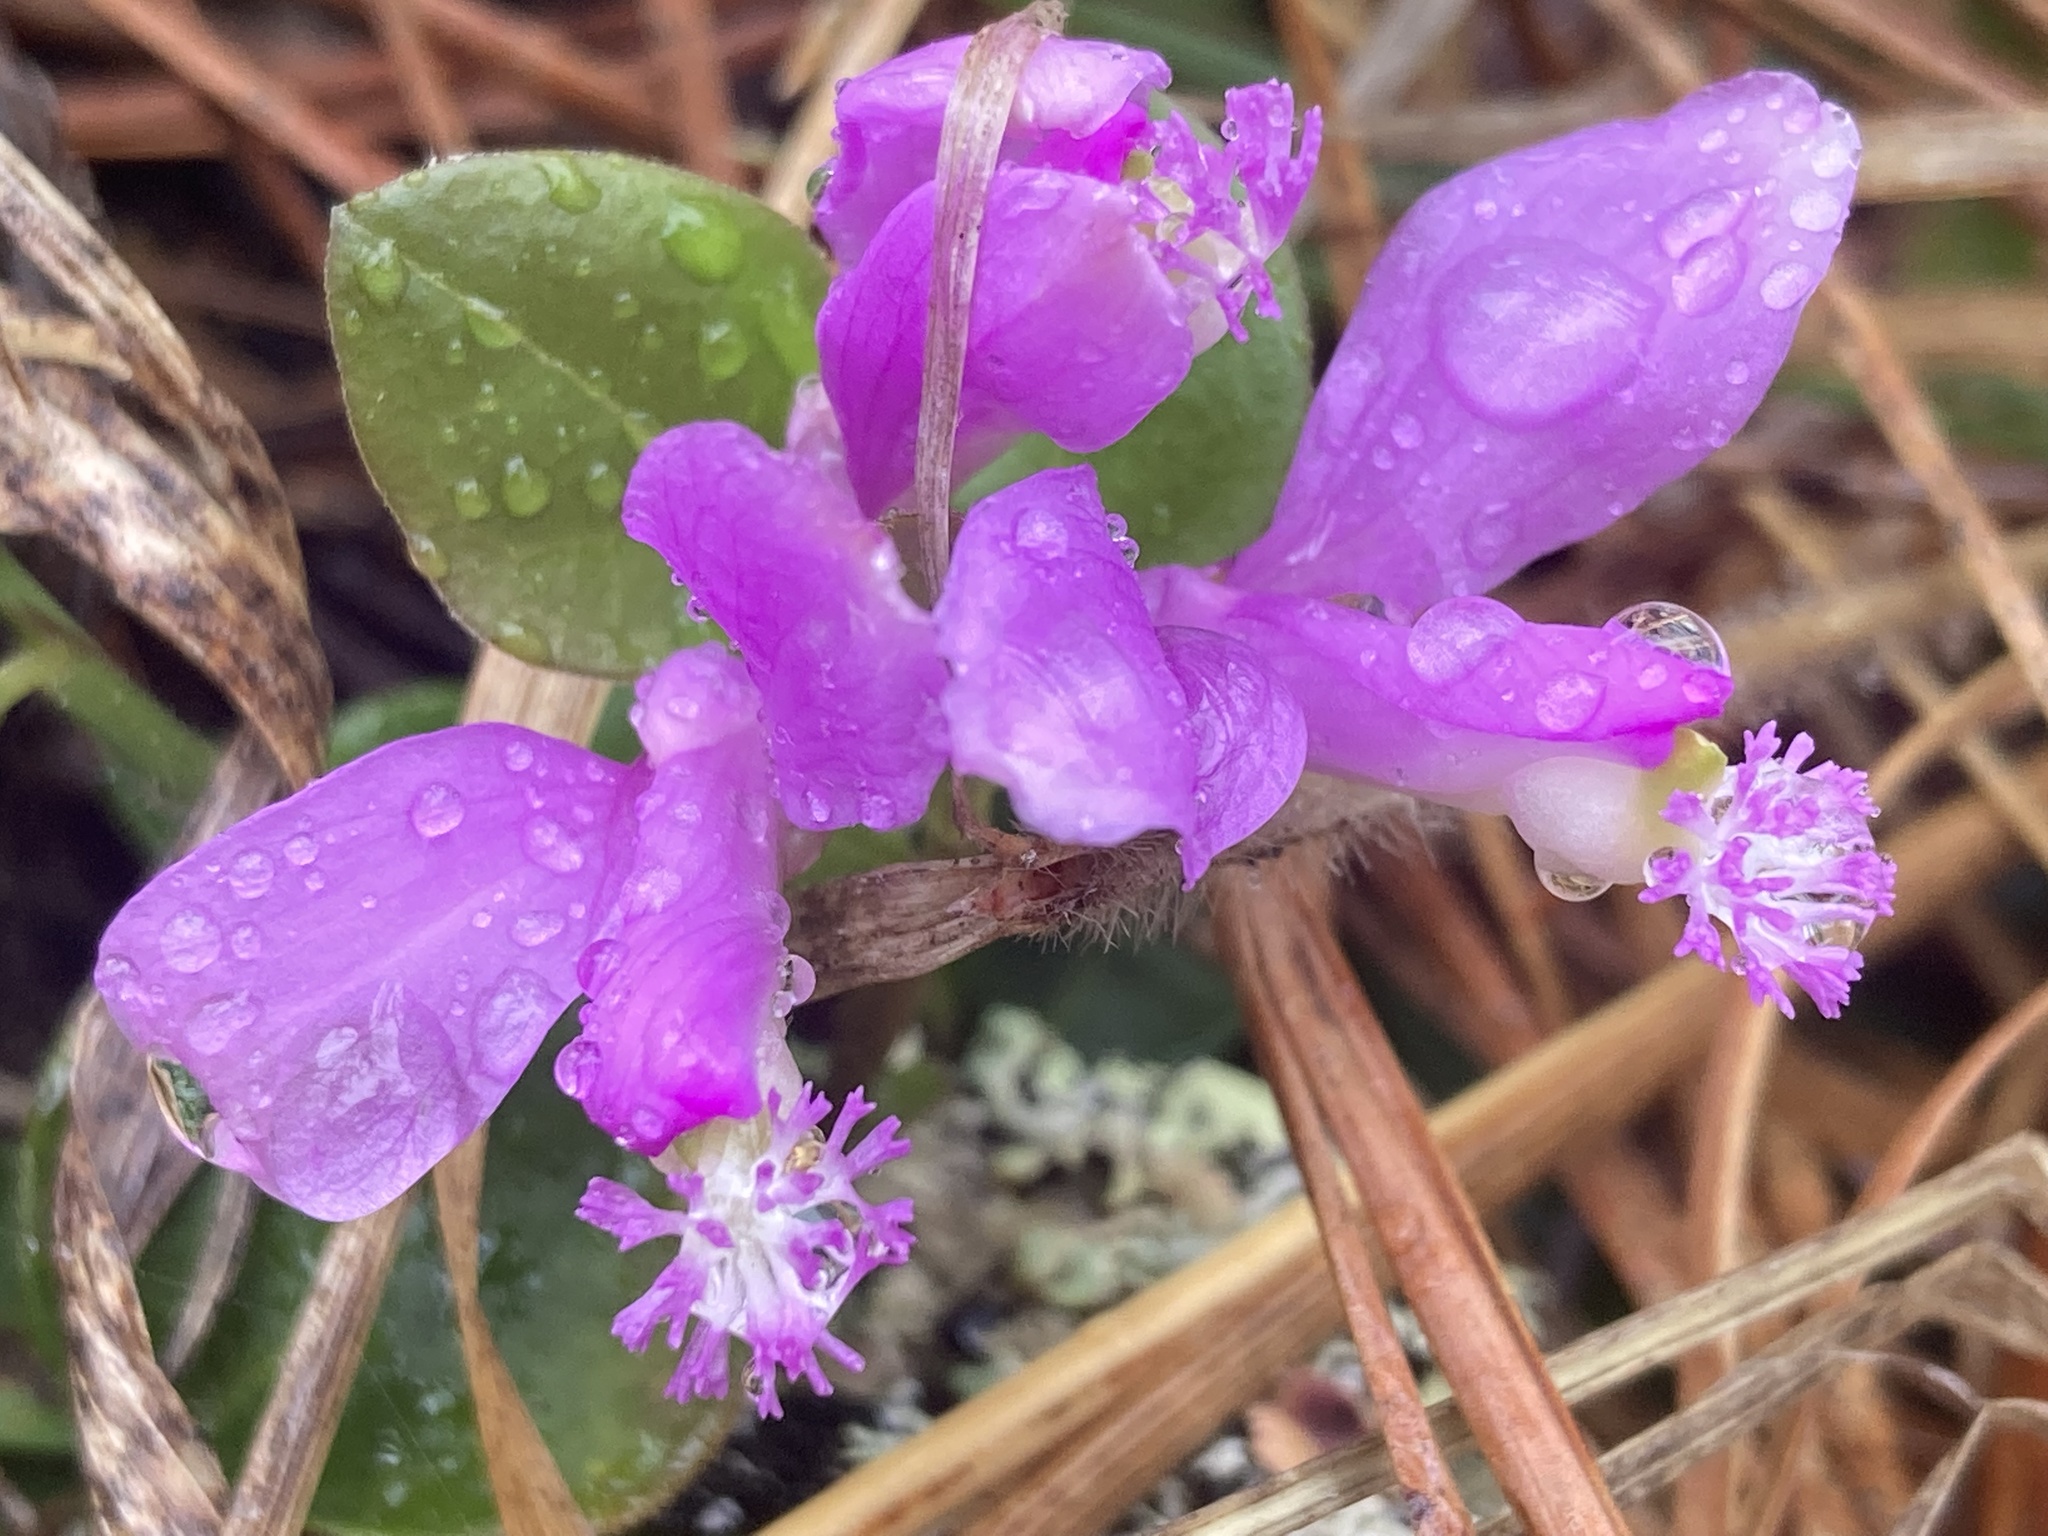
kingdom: Plantae
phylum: Tracheophyta
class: Magnoliopsida
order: Fabales
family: Polygalaceae
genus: Polygaloides
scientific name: Polygaloides paucifolia
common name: Bird-on-the-wing
